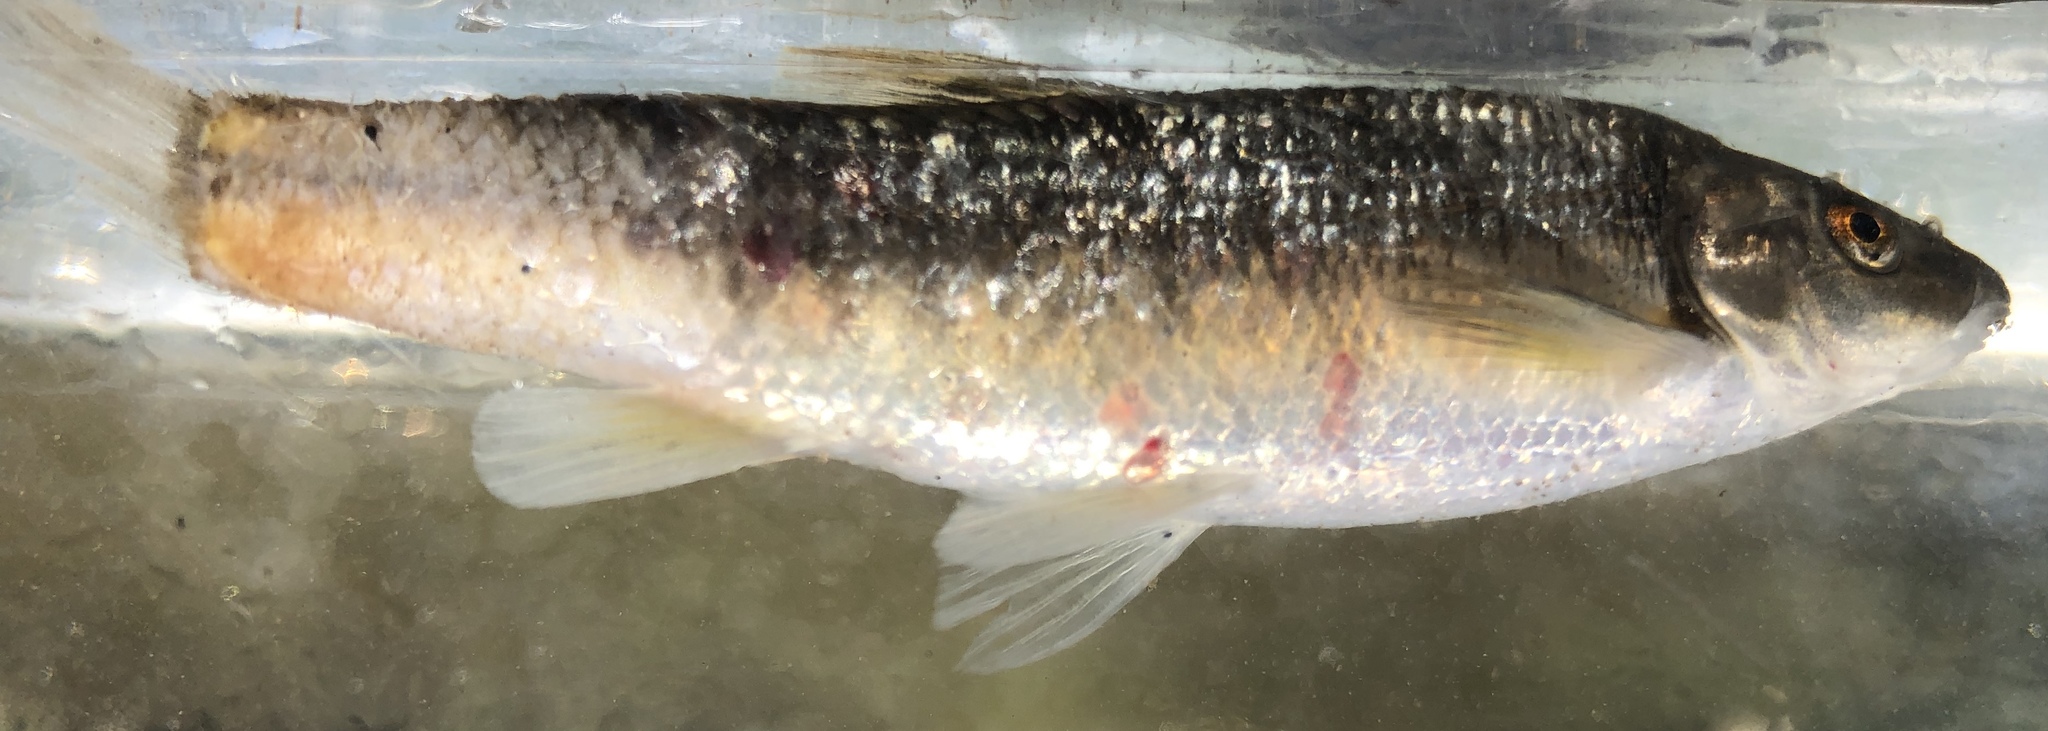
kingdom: Animalia
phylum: Chordata
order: Cypriniformes
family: Cyprinidae
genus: Campostoma
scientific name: Campostoma anomalum
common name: Central stoneroller
